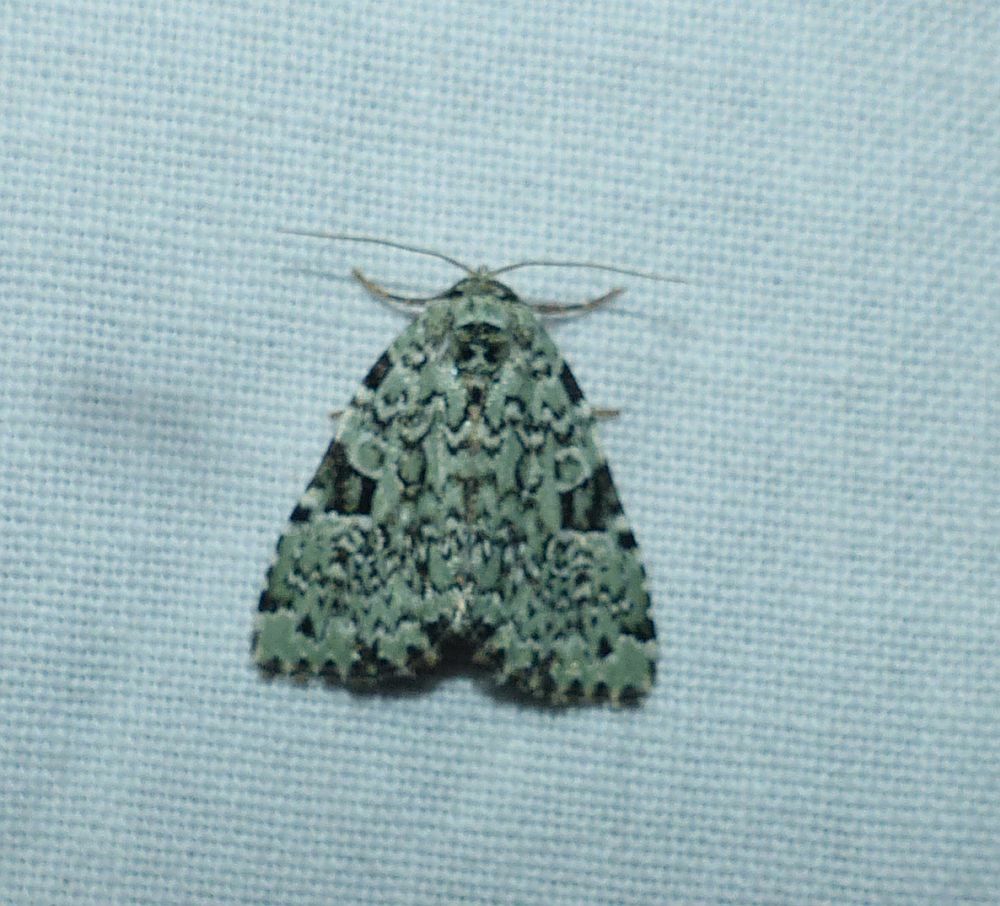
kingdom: Animalia
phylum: Arthropoda
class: Insecta
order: Lepidoptera
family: Noctuidae
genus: Leuconycta
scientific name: Leuconycta diphteroides
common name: Green leuconycta moth
